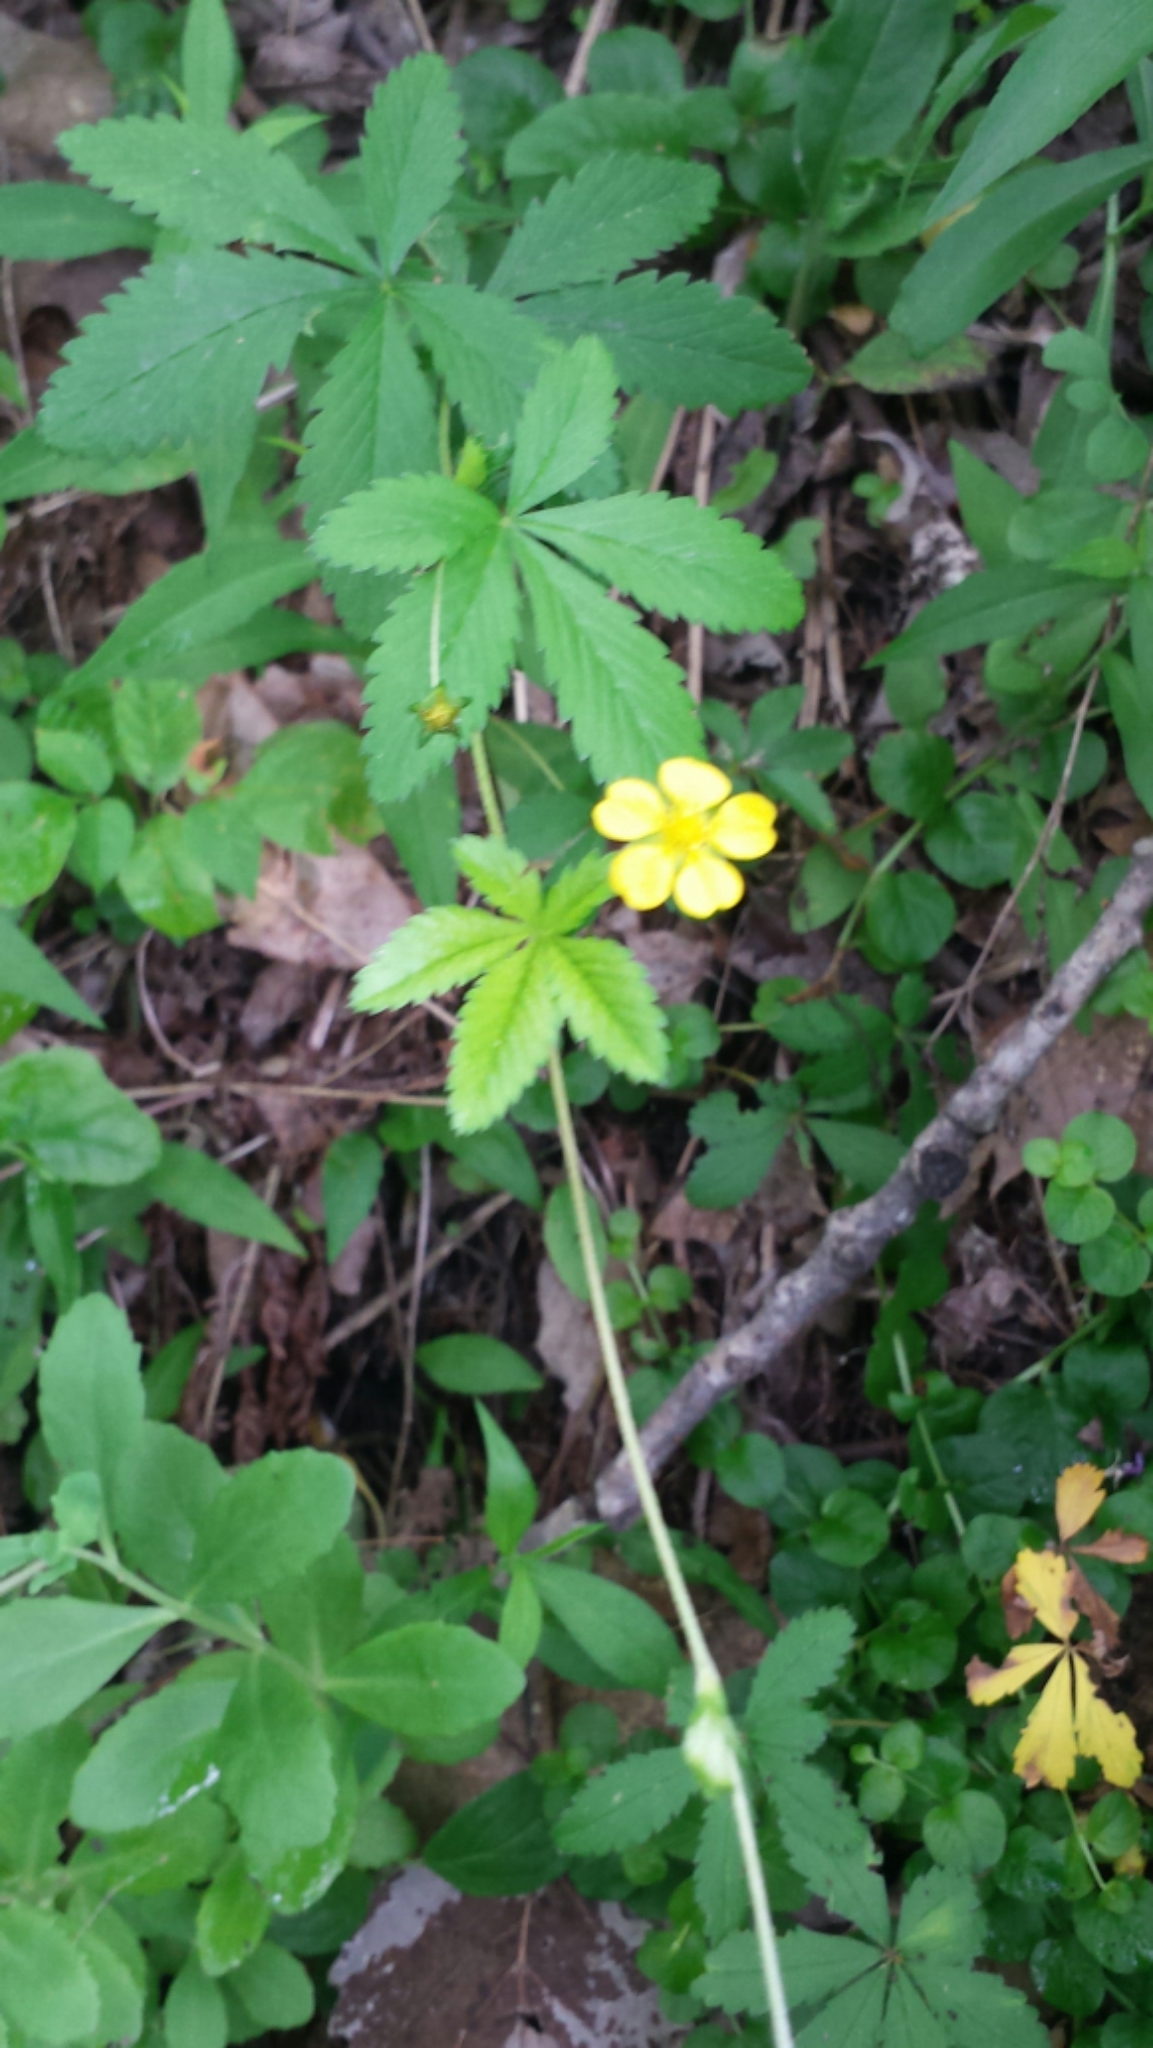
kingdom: Plantae
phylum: Tracheophyta
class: Magnoliopsida
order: Rosales
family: Rosaceae
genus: Potentilla
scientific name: Potentilla simplex
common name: Old field cinquefoil
